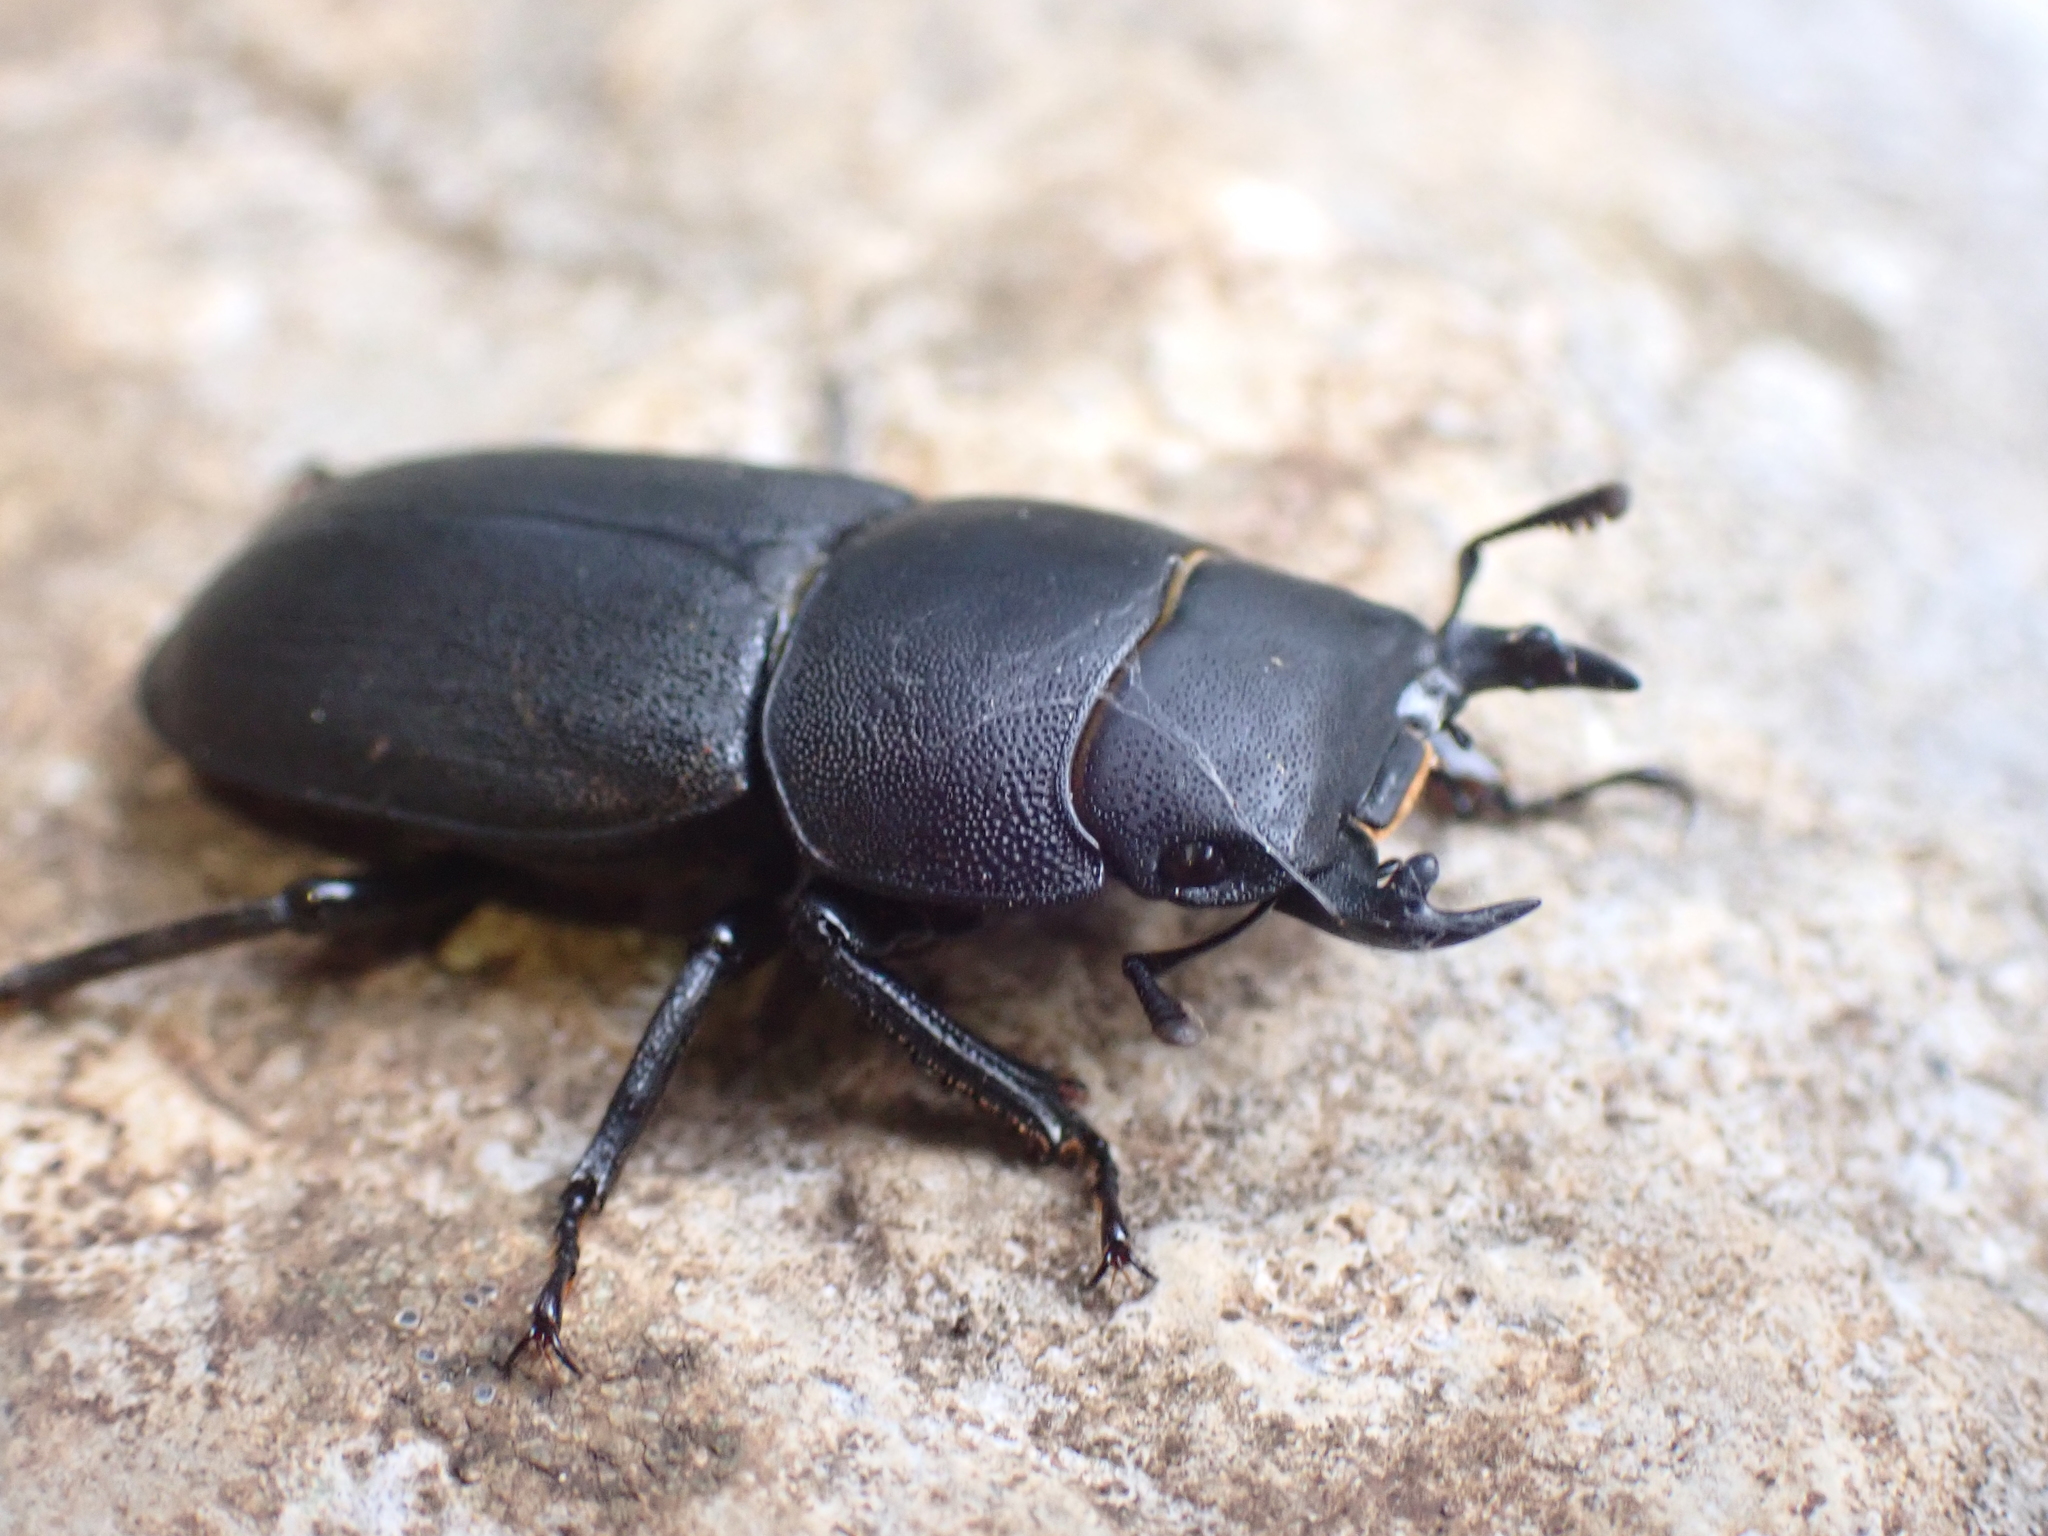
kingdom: Animalia
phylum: Arthropoda
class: Insecta
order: Coleoptera
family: Lucanidae
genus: Dorcus
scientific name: Dorcus parallelipipedus
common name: Lesser stag beetle
